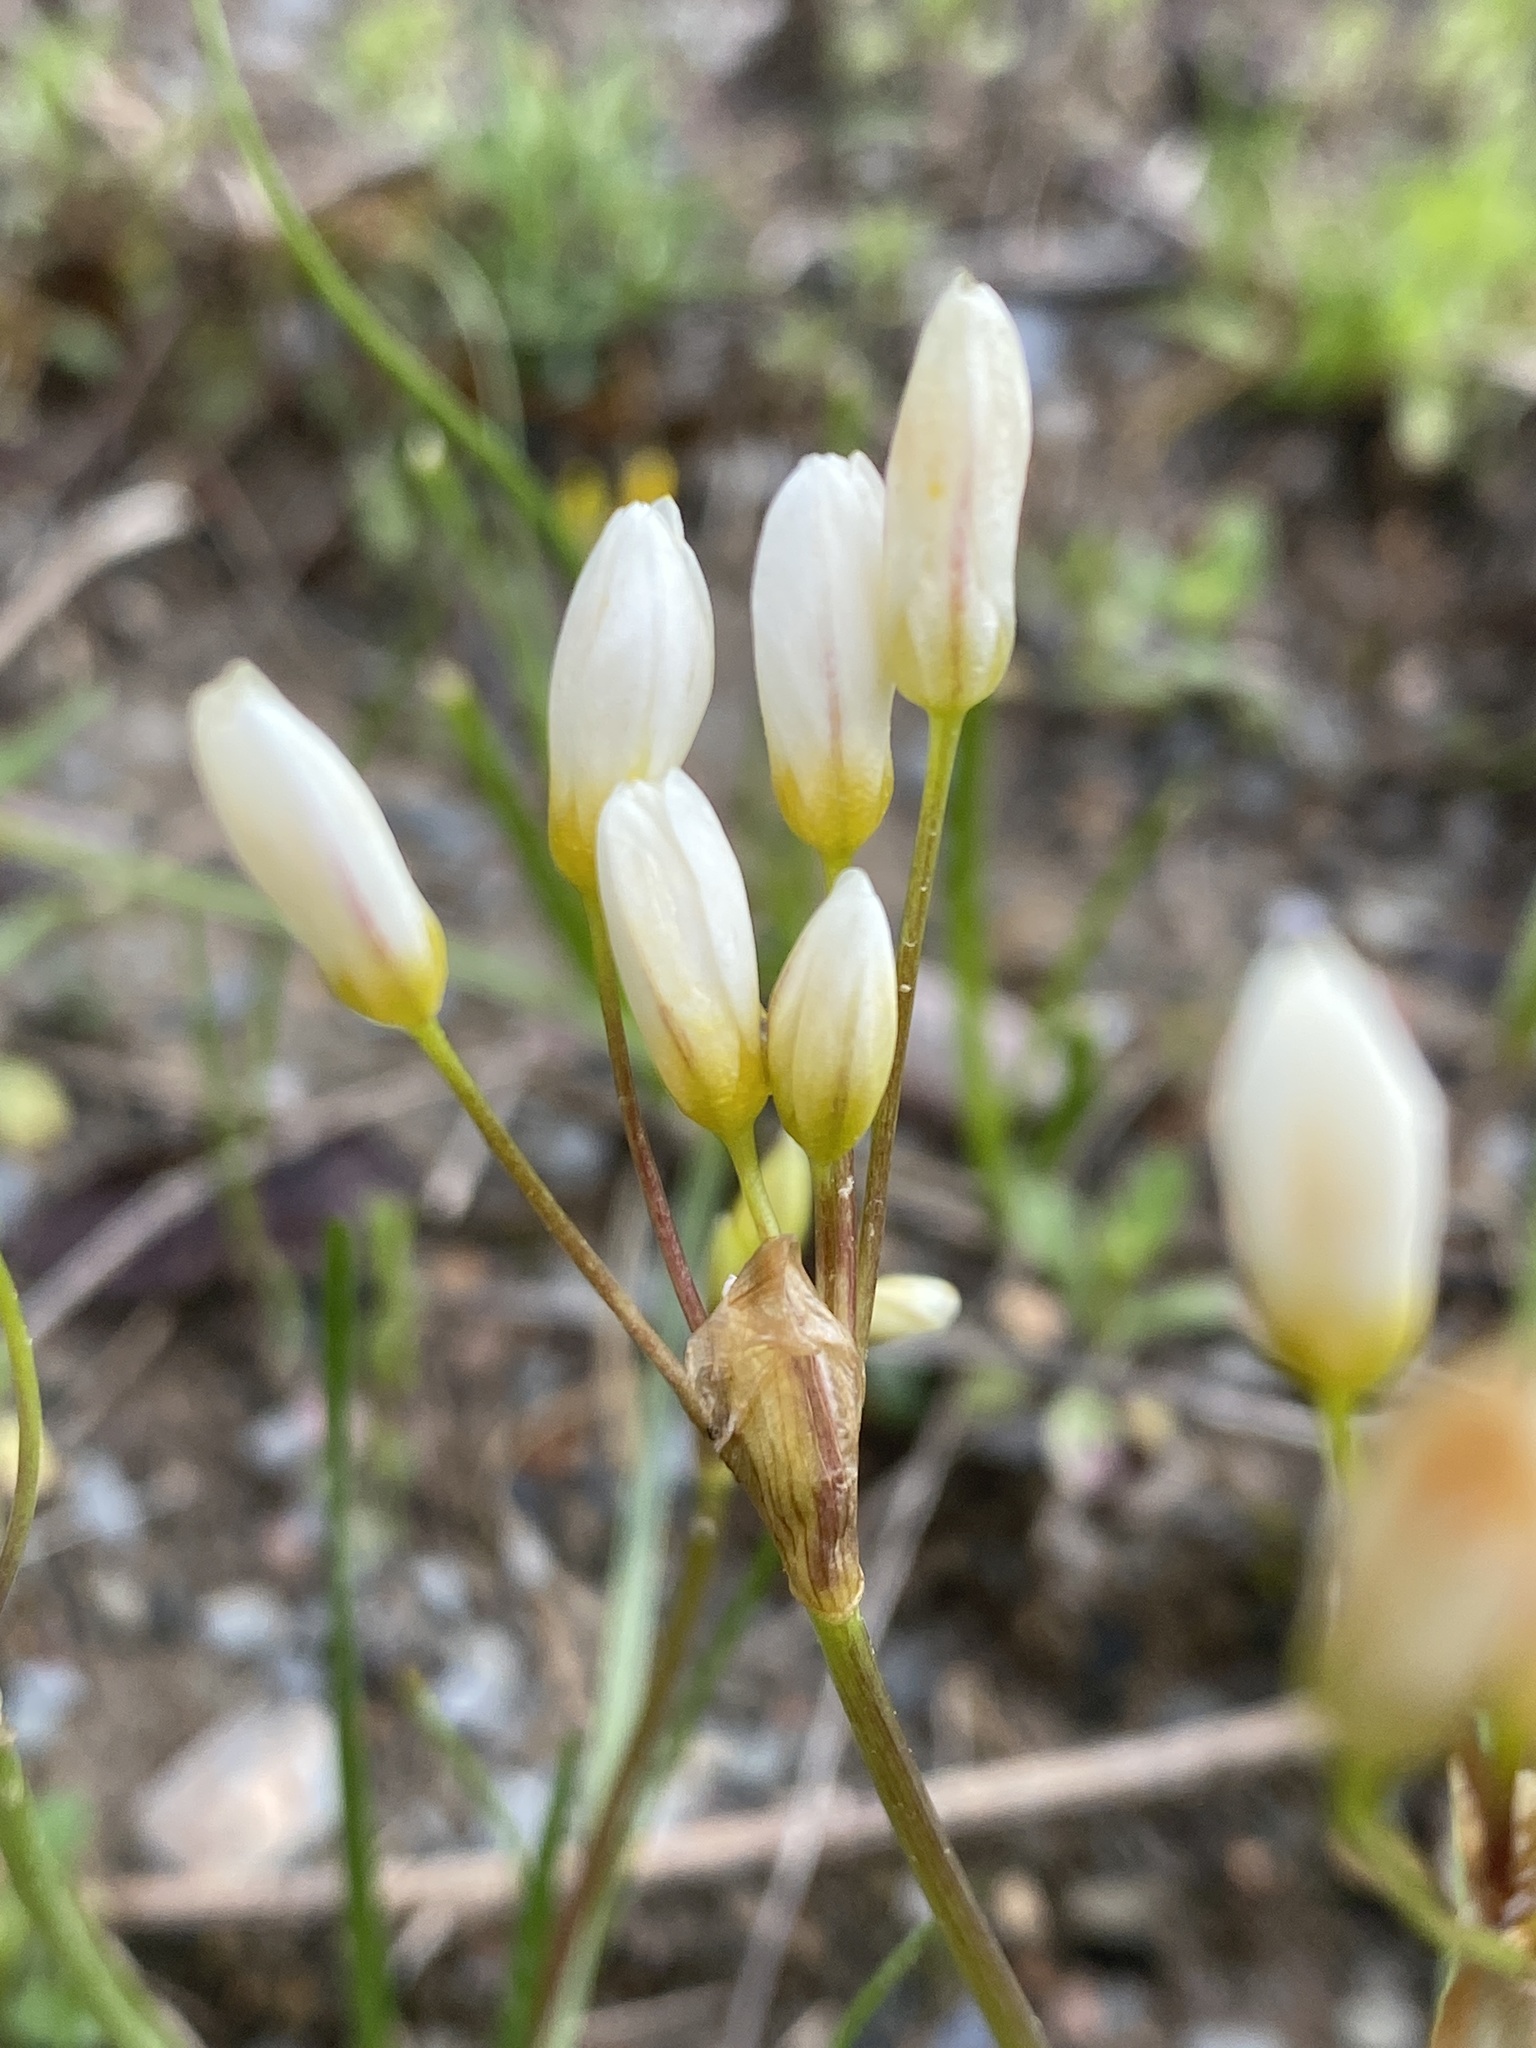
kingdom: Plantae
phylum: Tracheophyta
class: Liliopsida
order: Asparagales
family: Amaryllidaceae
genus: Nothoscordum
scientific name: Nothoscordum bivalve
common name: Crow-poison
